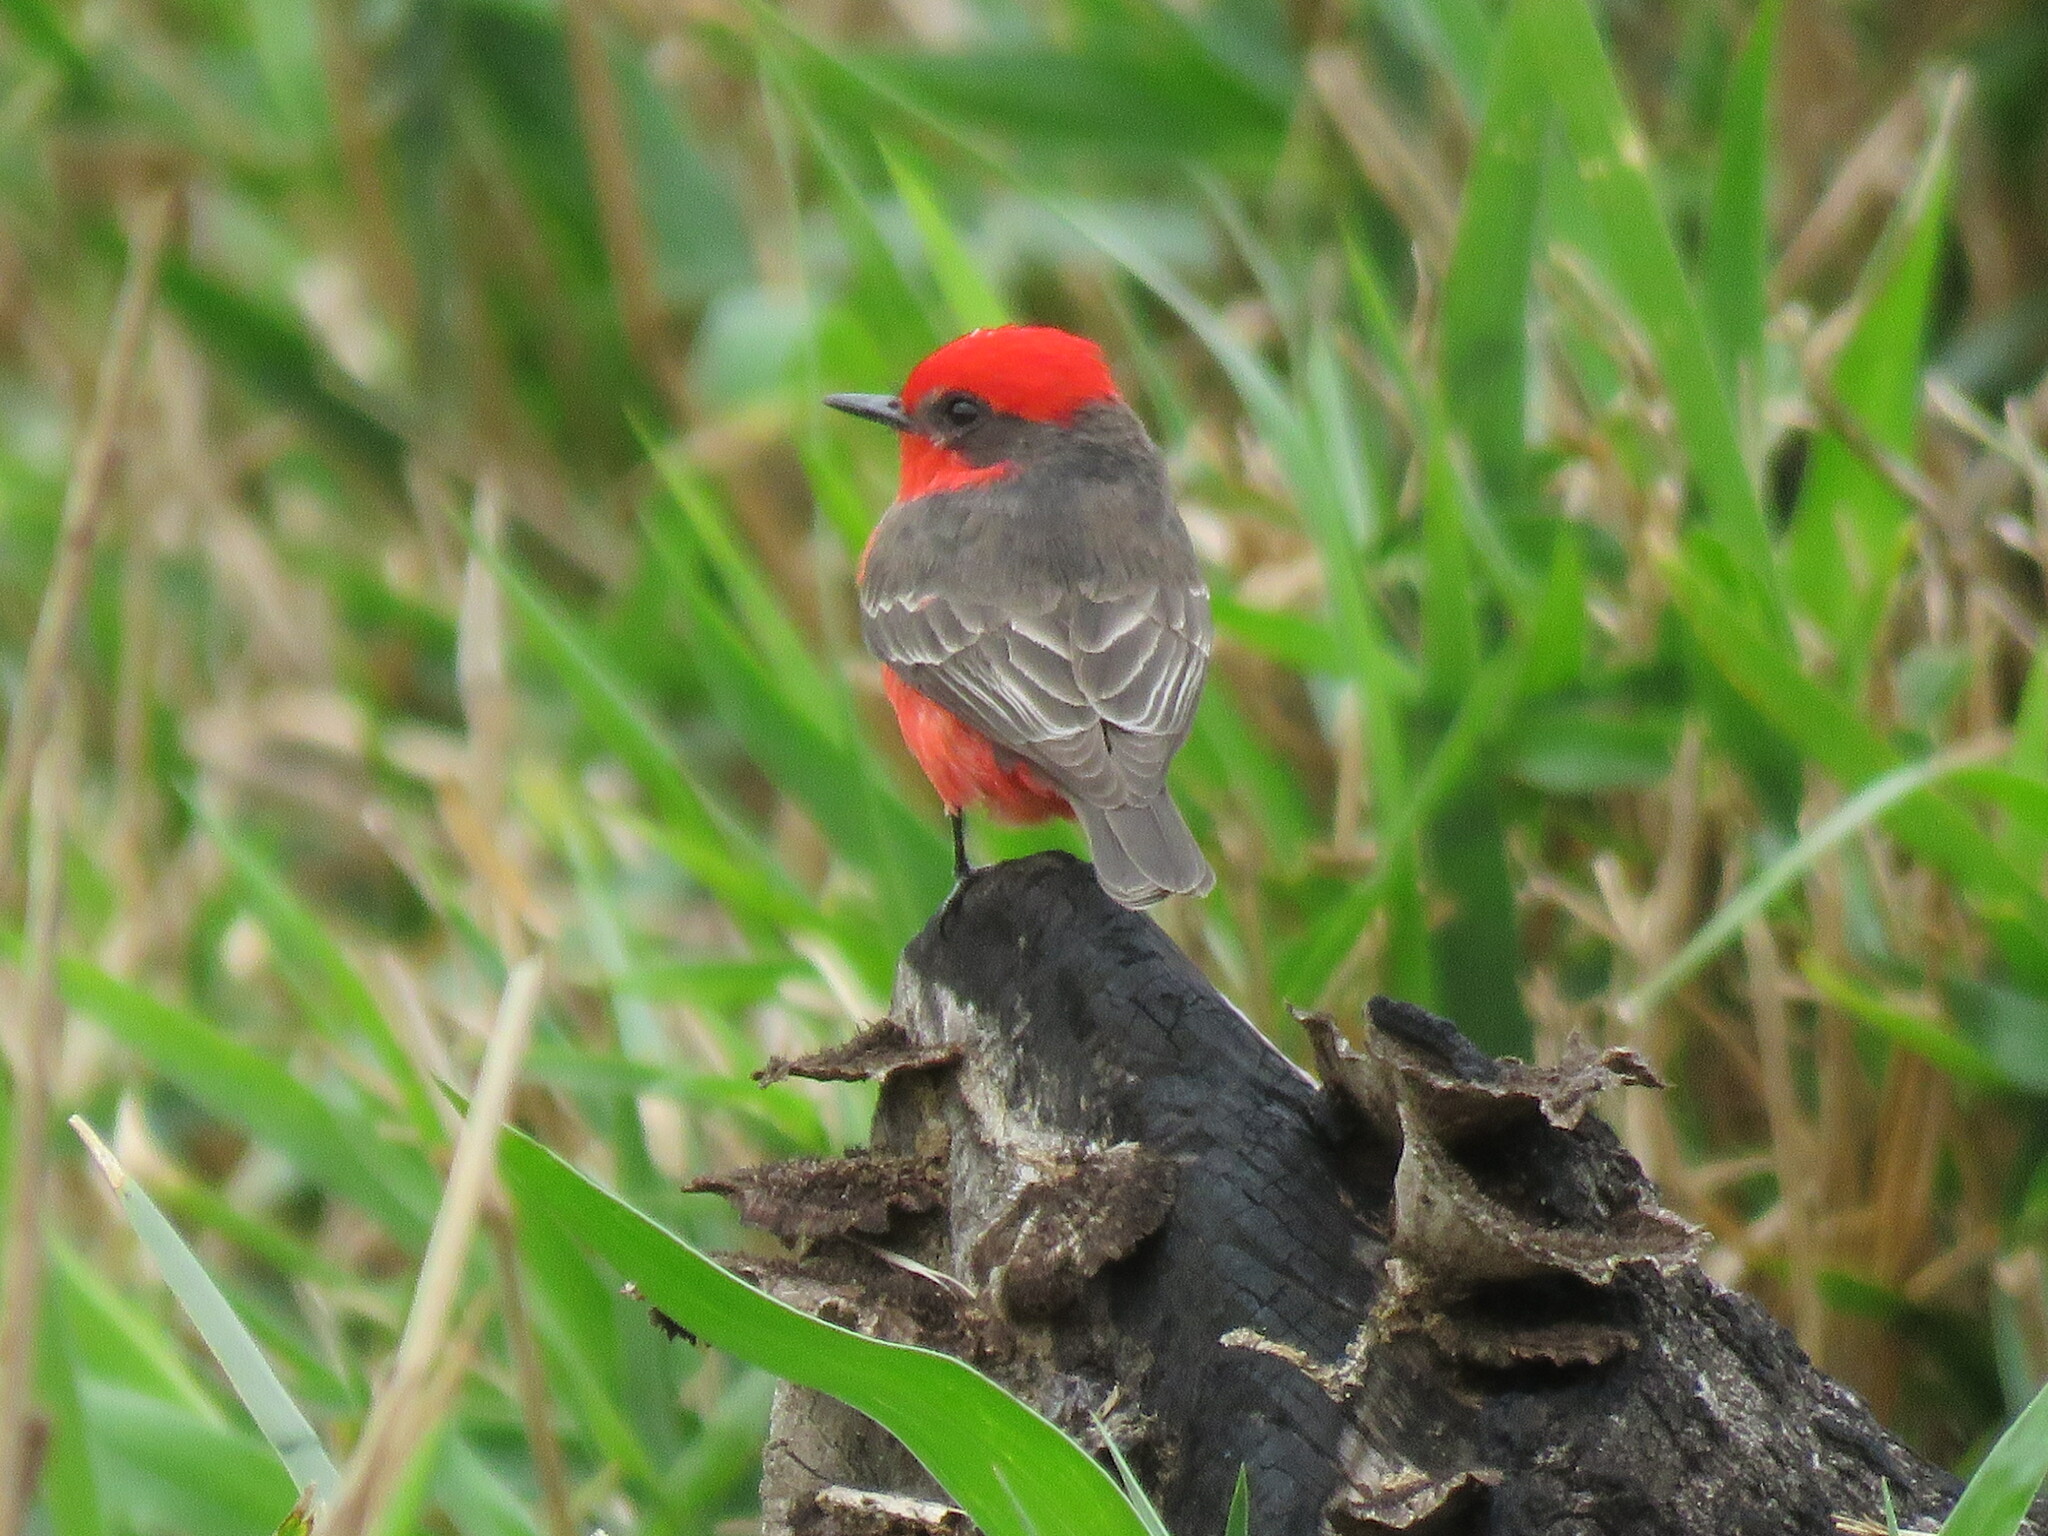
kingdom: Animalia
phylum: Chordata
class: Aves
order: Passeriformes
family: Tyrannidae
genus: Pyrocephalus
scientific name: Pyrocephalus rubinus
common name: Vermilion flycatcher
